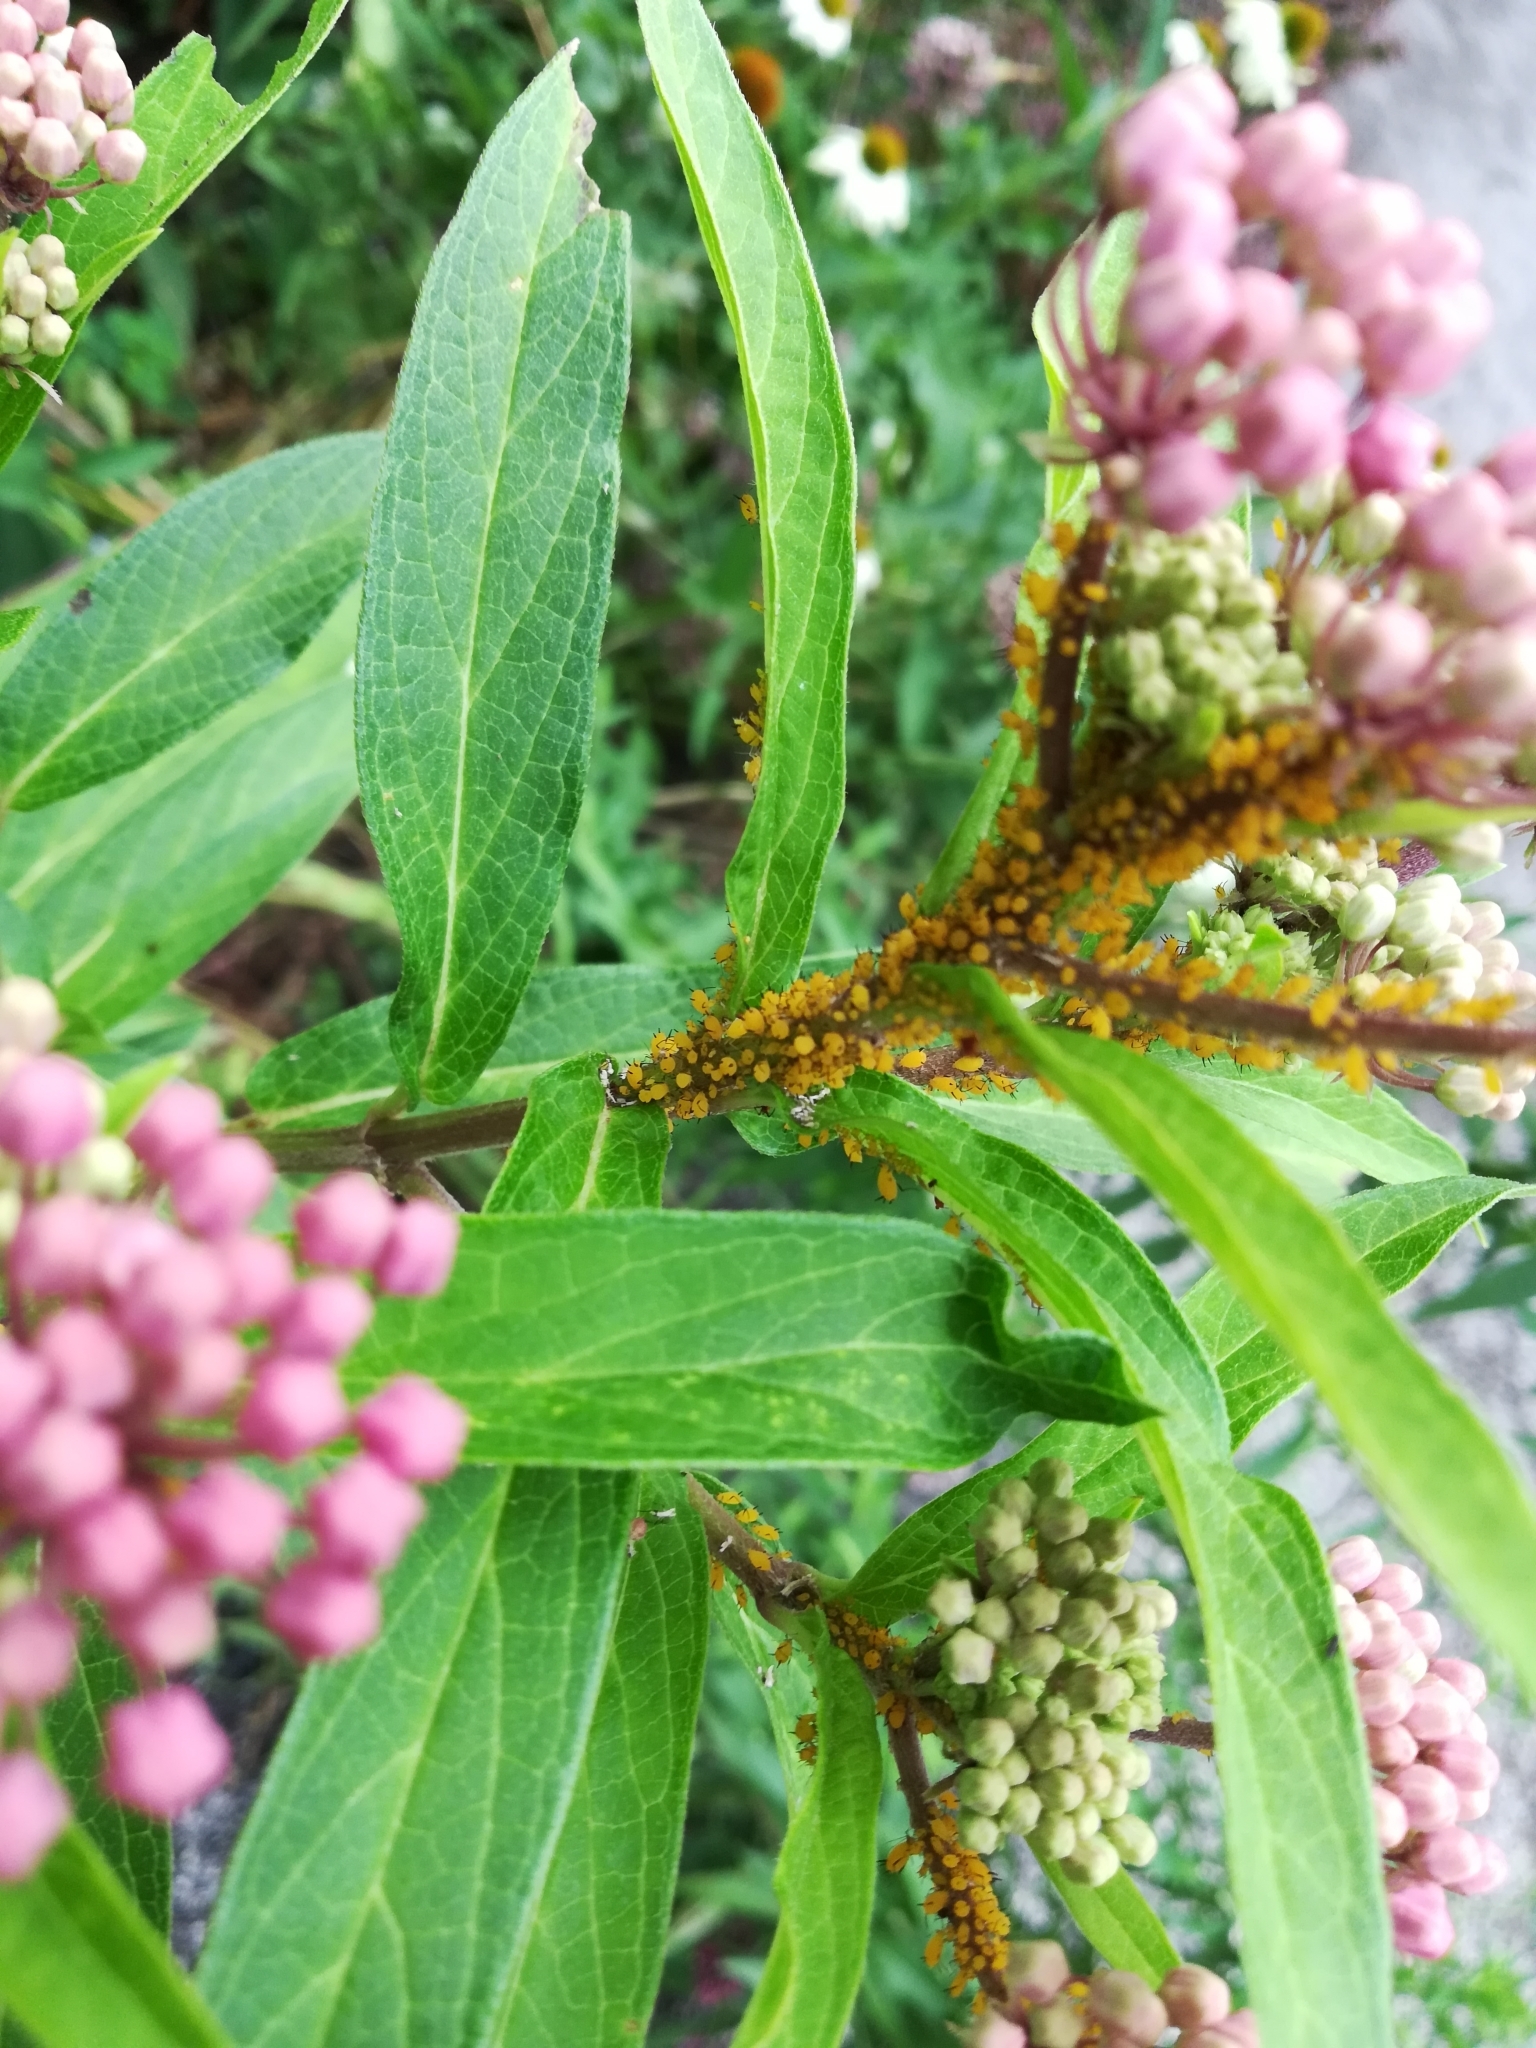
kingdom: Animalia
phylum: Arthropoda
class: Insecta
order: Hemiptera
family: Aphididae
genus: Aphis
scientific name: Aphis nerii
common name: Oleander aphid
